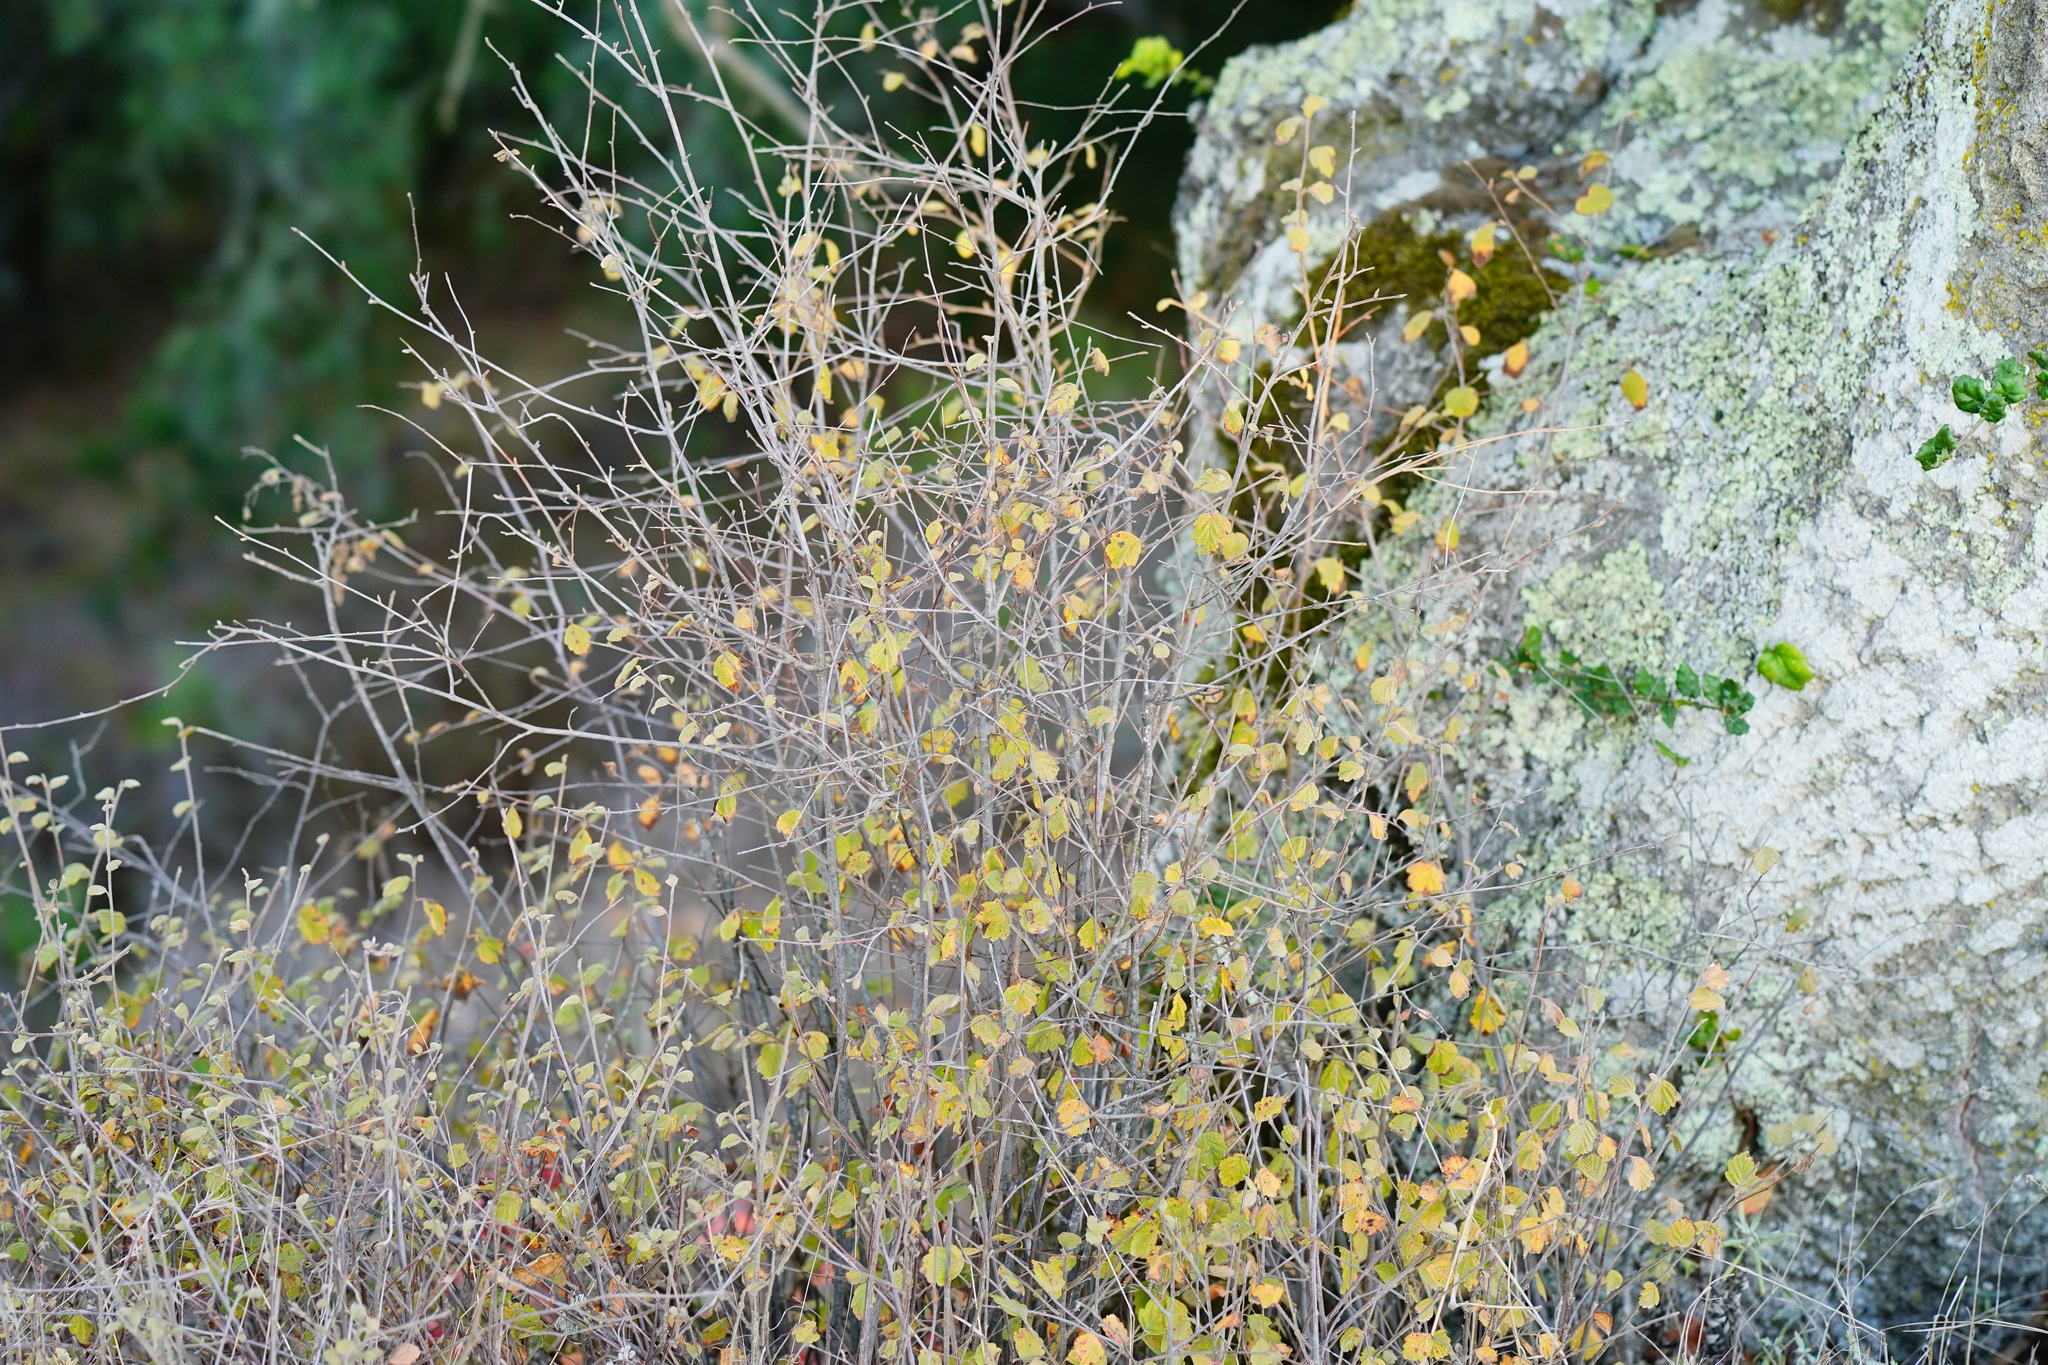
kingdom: Plantae
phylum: Tracheophyta
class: Magnoliopsida
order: Rosales
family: Rosaceae
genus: Holodiscus
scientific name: Holodiscus discolor
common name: Oceanspray
